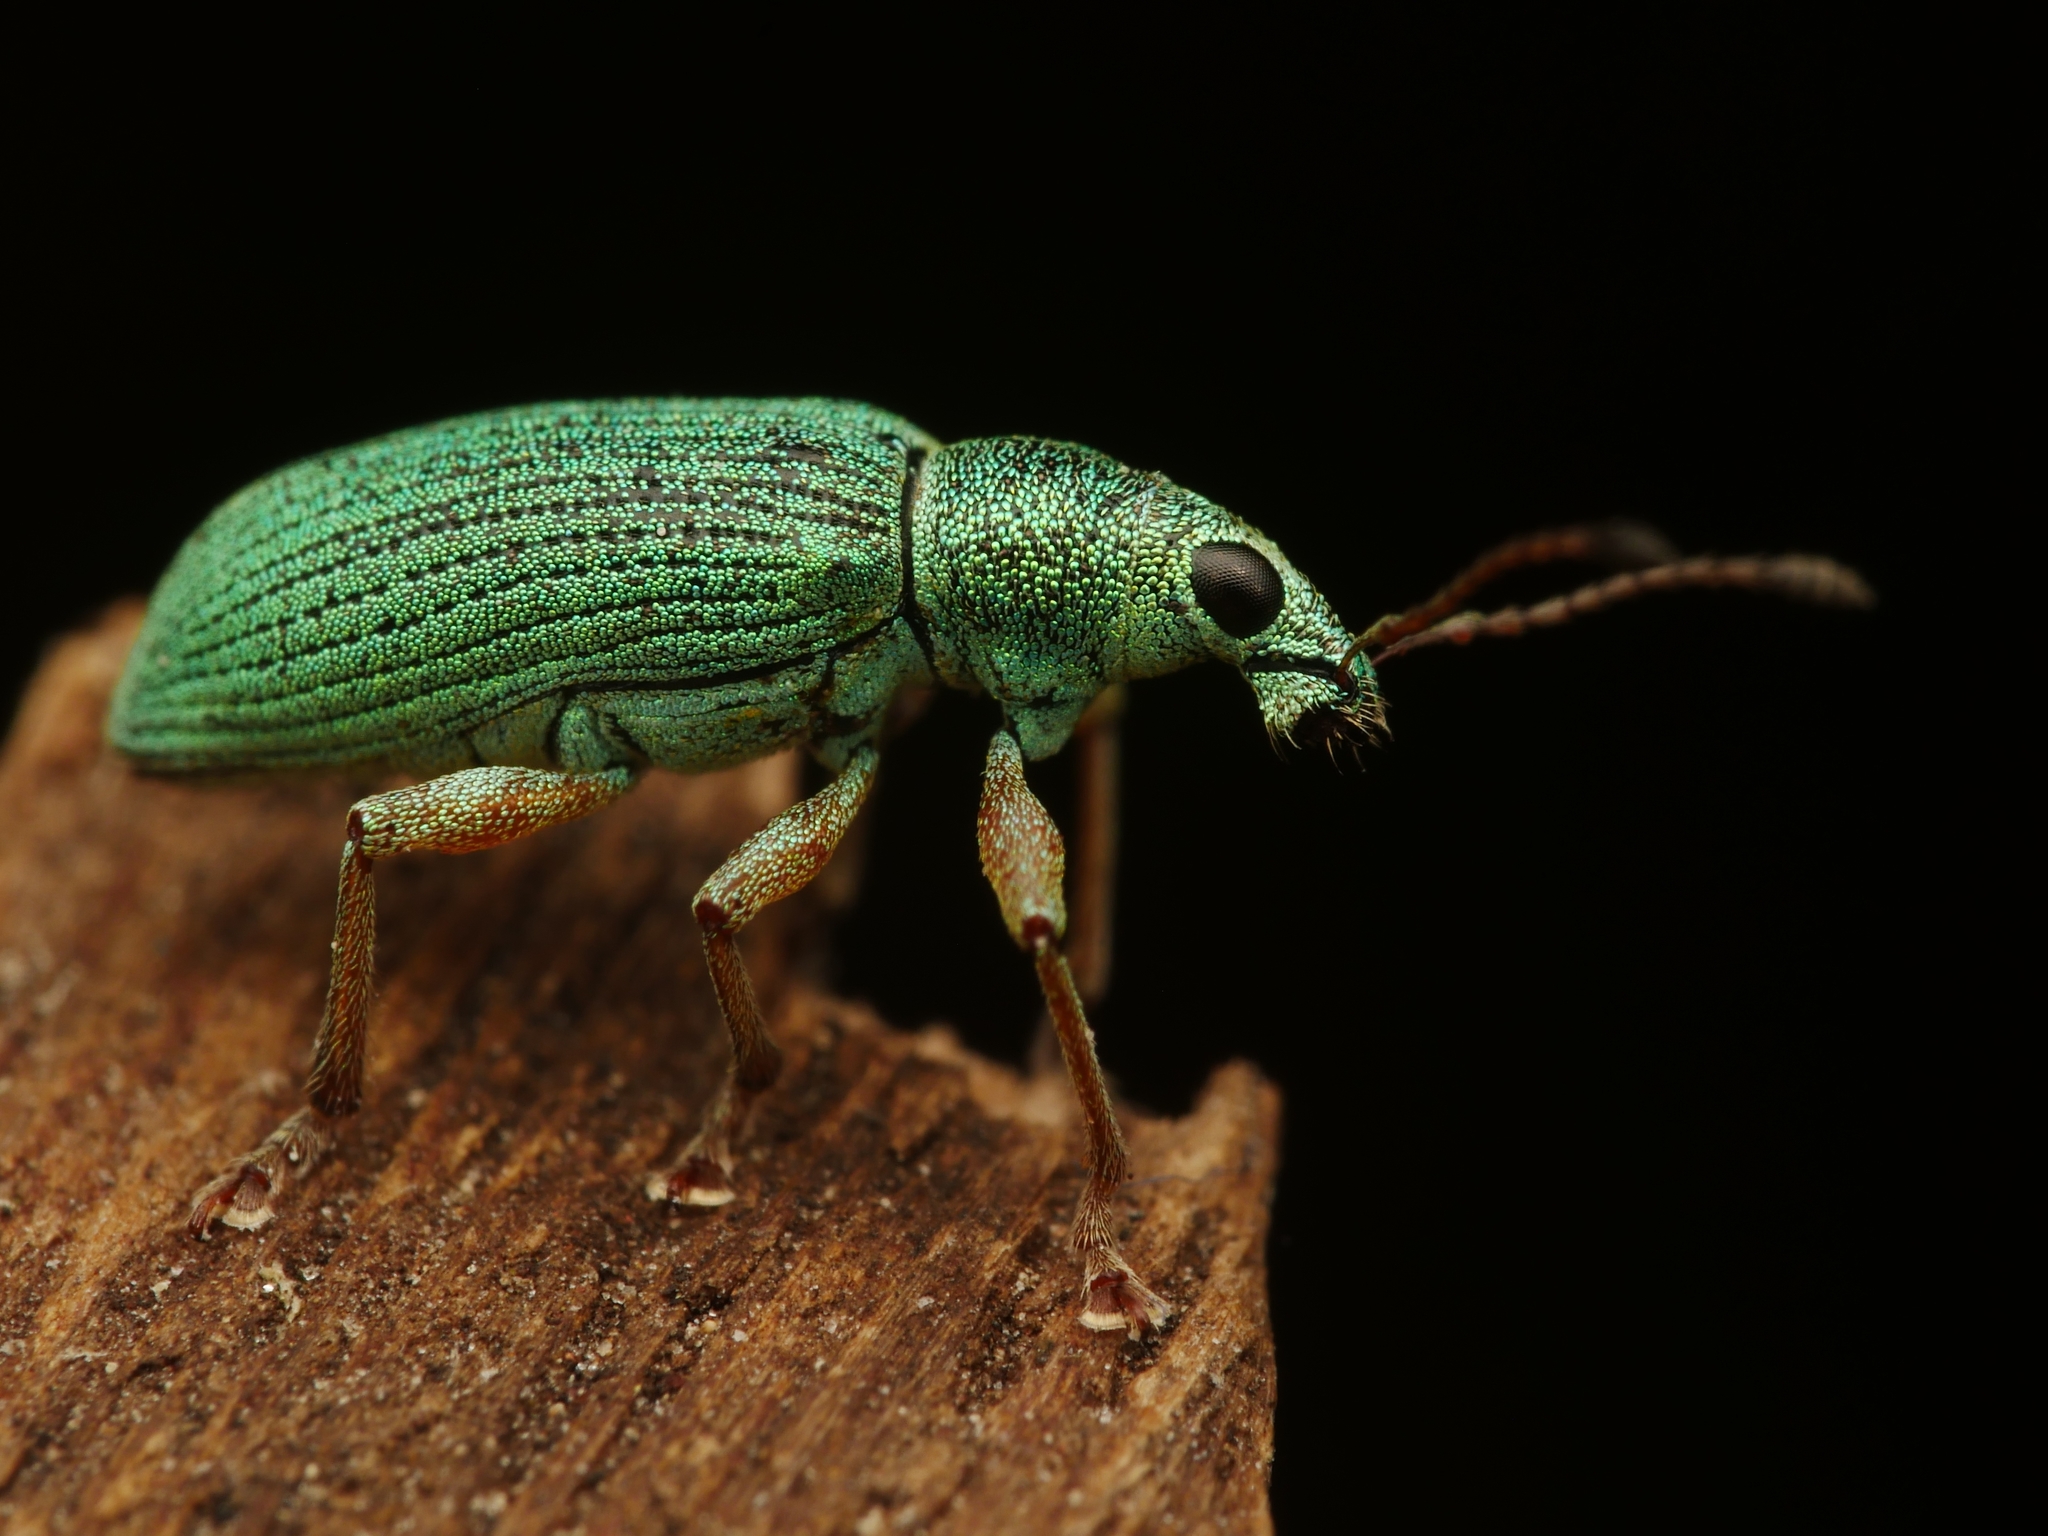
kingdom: Animalia
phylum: Arthropoda
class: Insecta
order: Coleoptera
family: Curculionidae
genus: Polydrusus
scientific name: Polydrusus formosus
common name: Weevil
